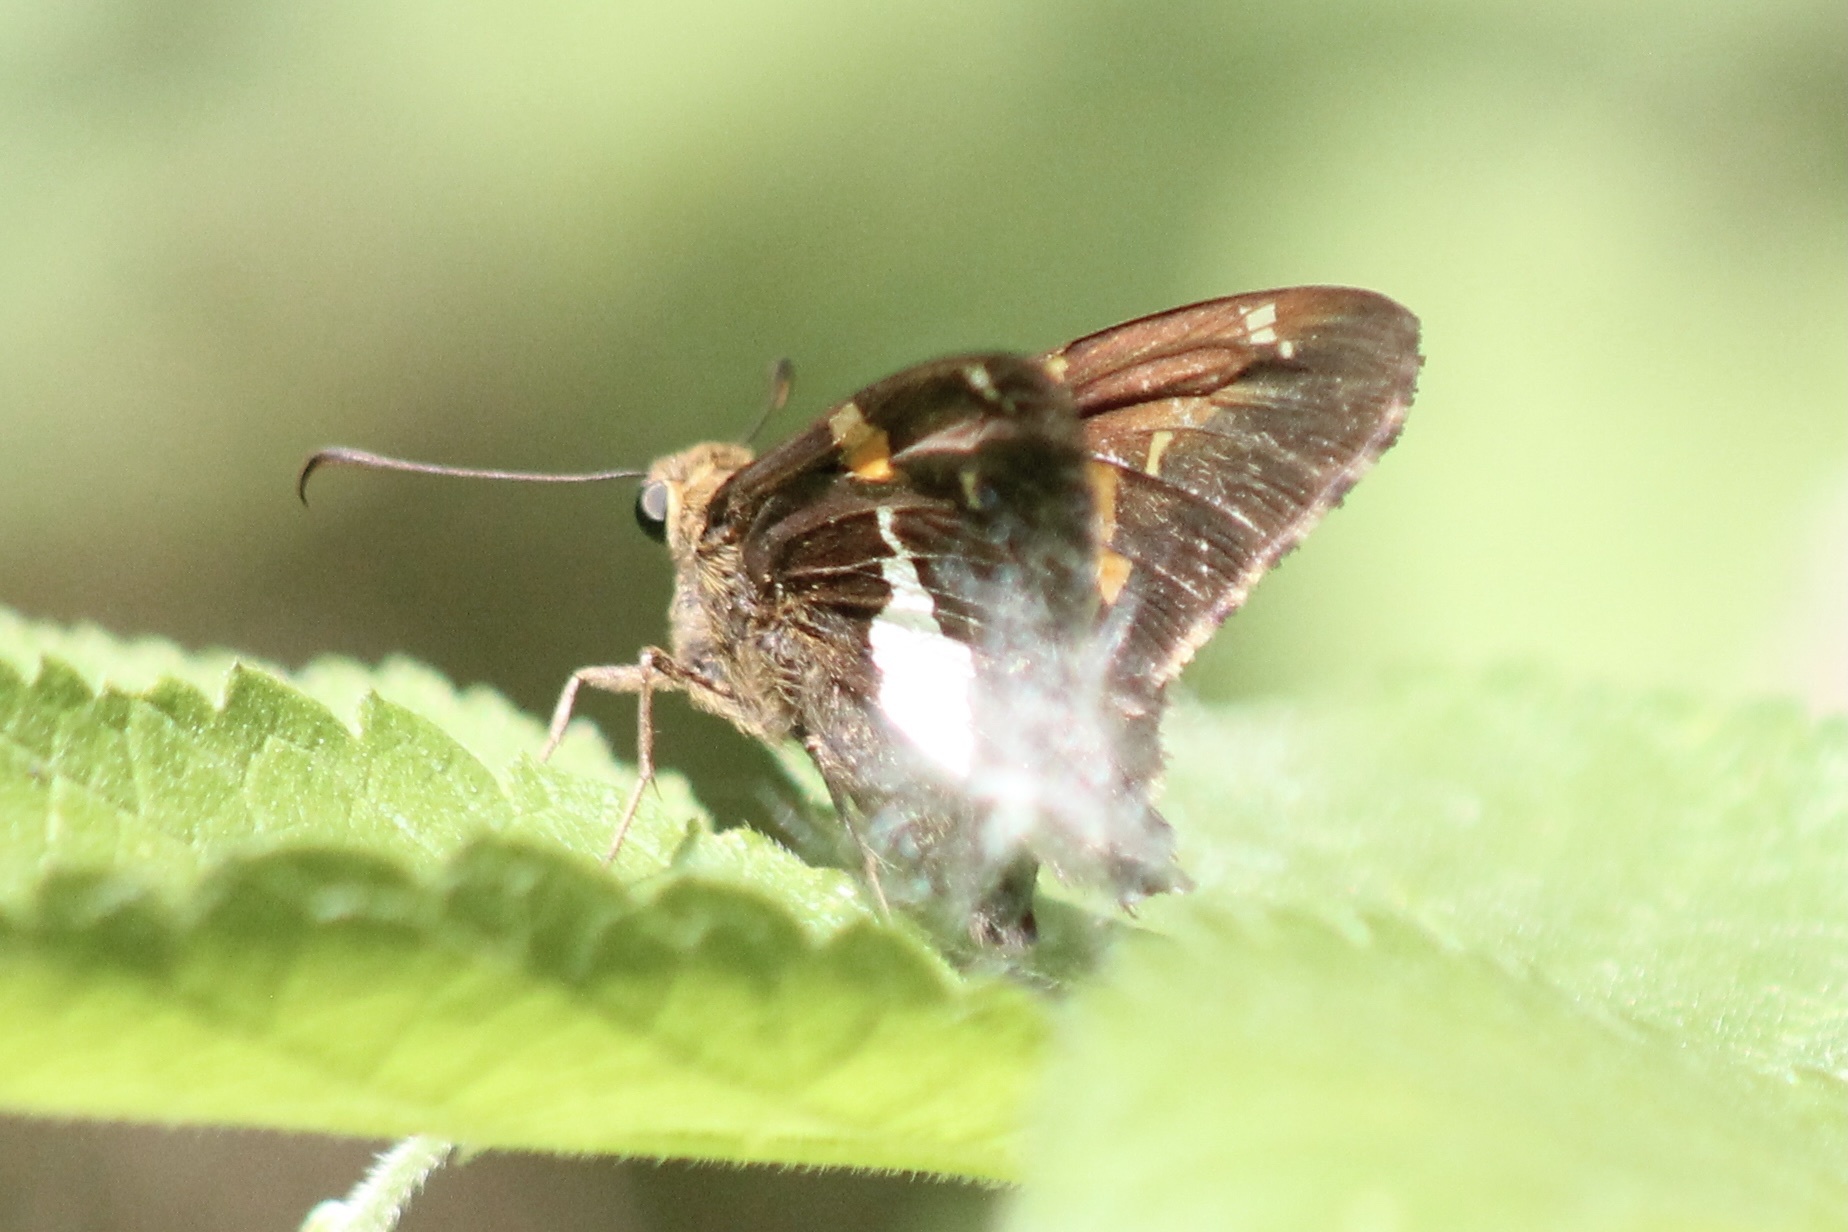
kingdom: Animalia
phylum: Arthropoda
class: Insecta
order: Lepidoptera
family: Hesperiidae
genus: Epargyreus
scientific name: Epargyreus clarus
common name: Silver-spotted skipper
